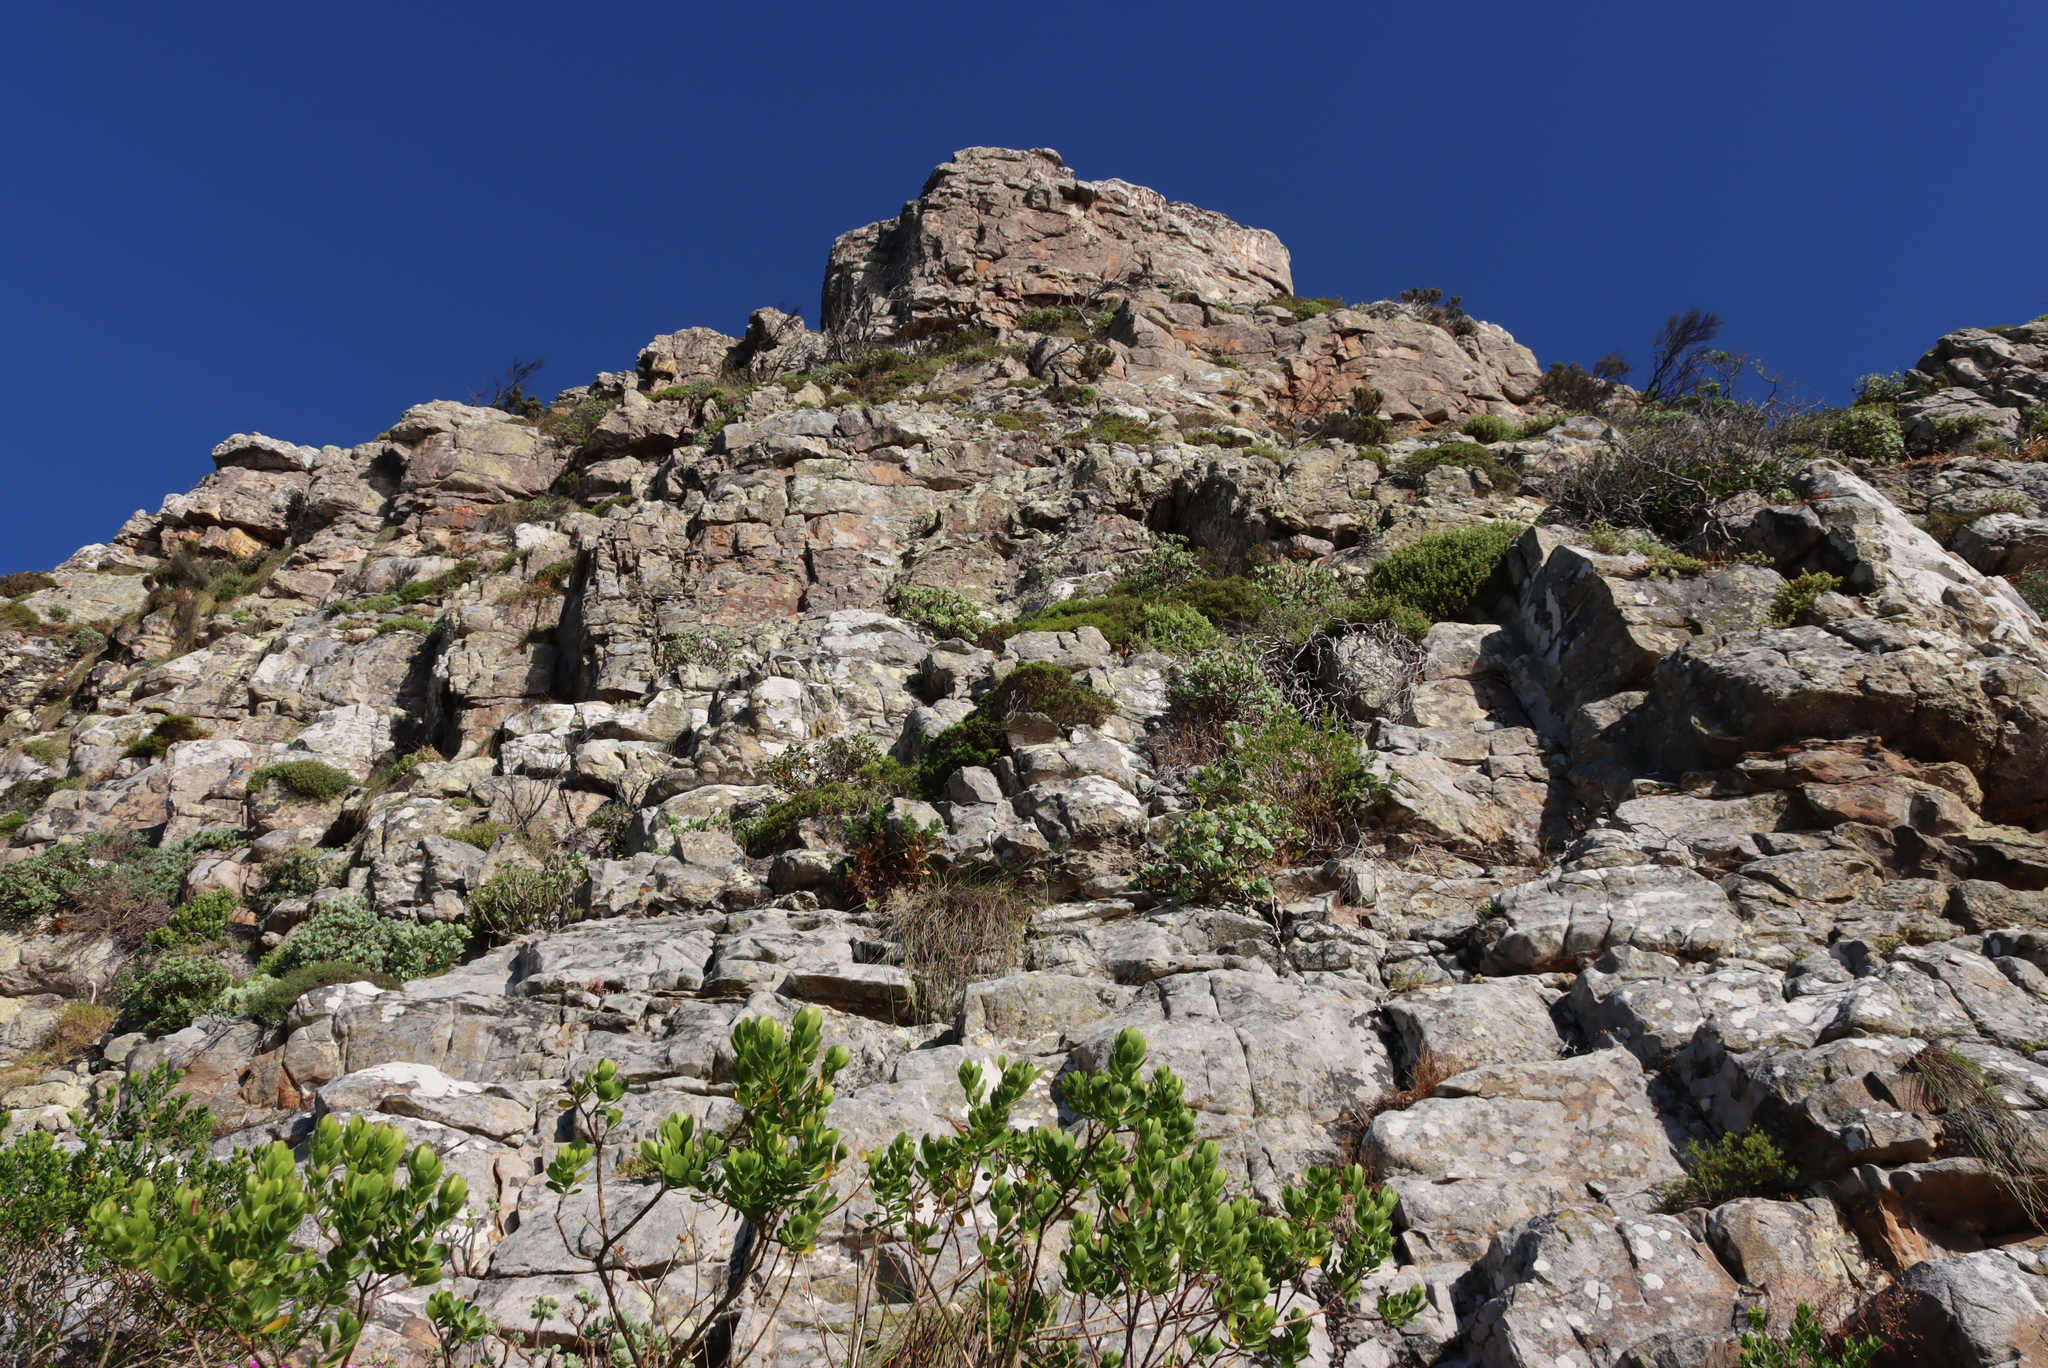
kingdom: Plantae
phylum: Tracheophyta
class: Magnoliopsida
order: Asterales
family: Asteraceae
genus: Othonna
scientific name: Othonna dentata
